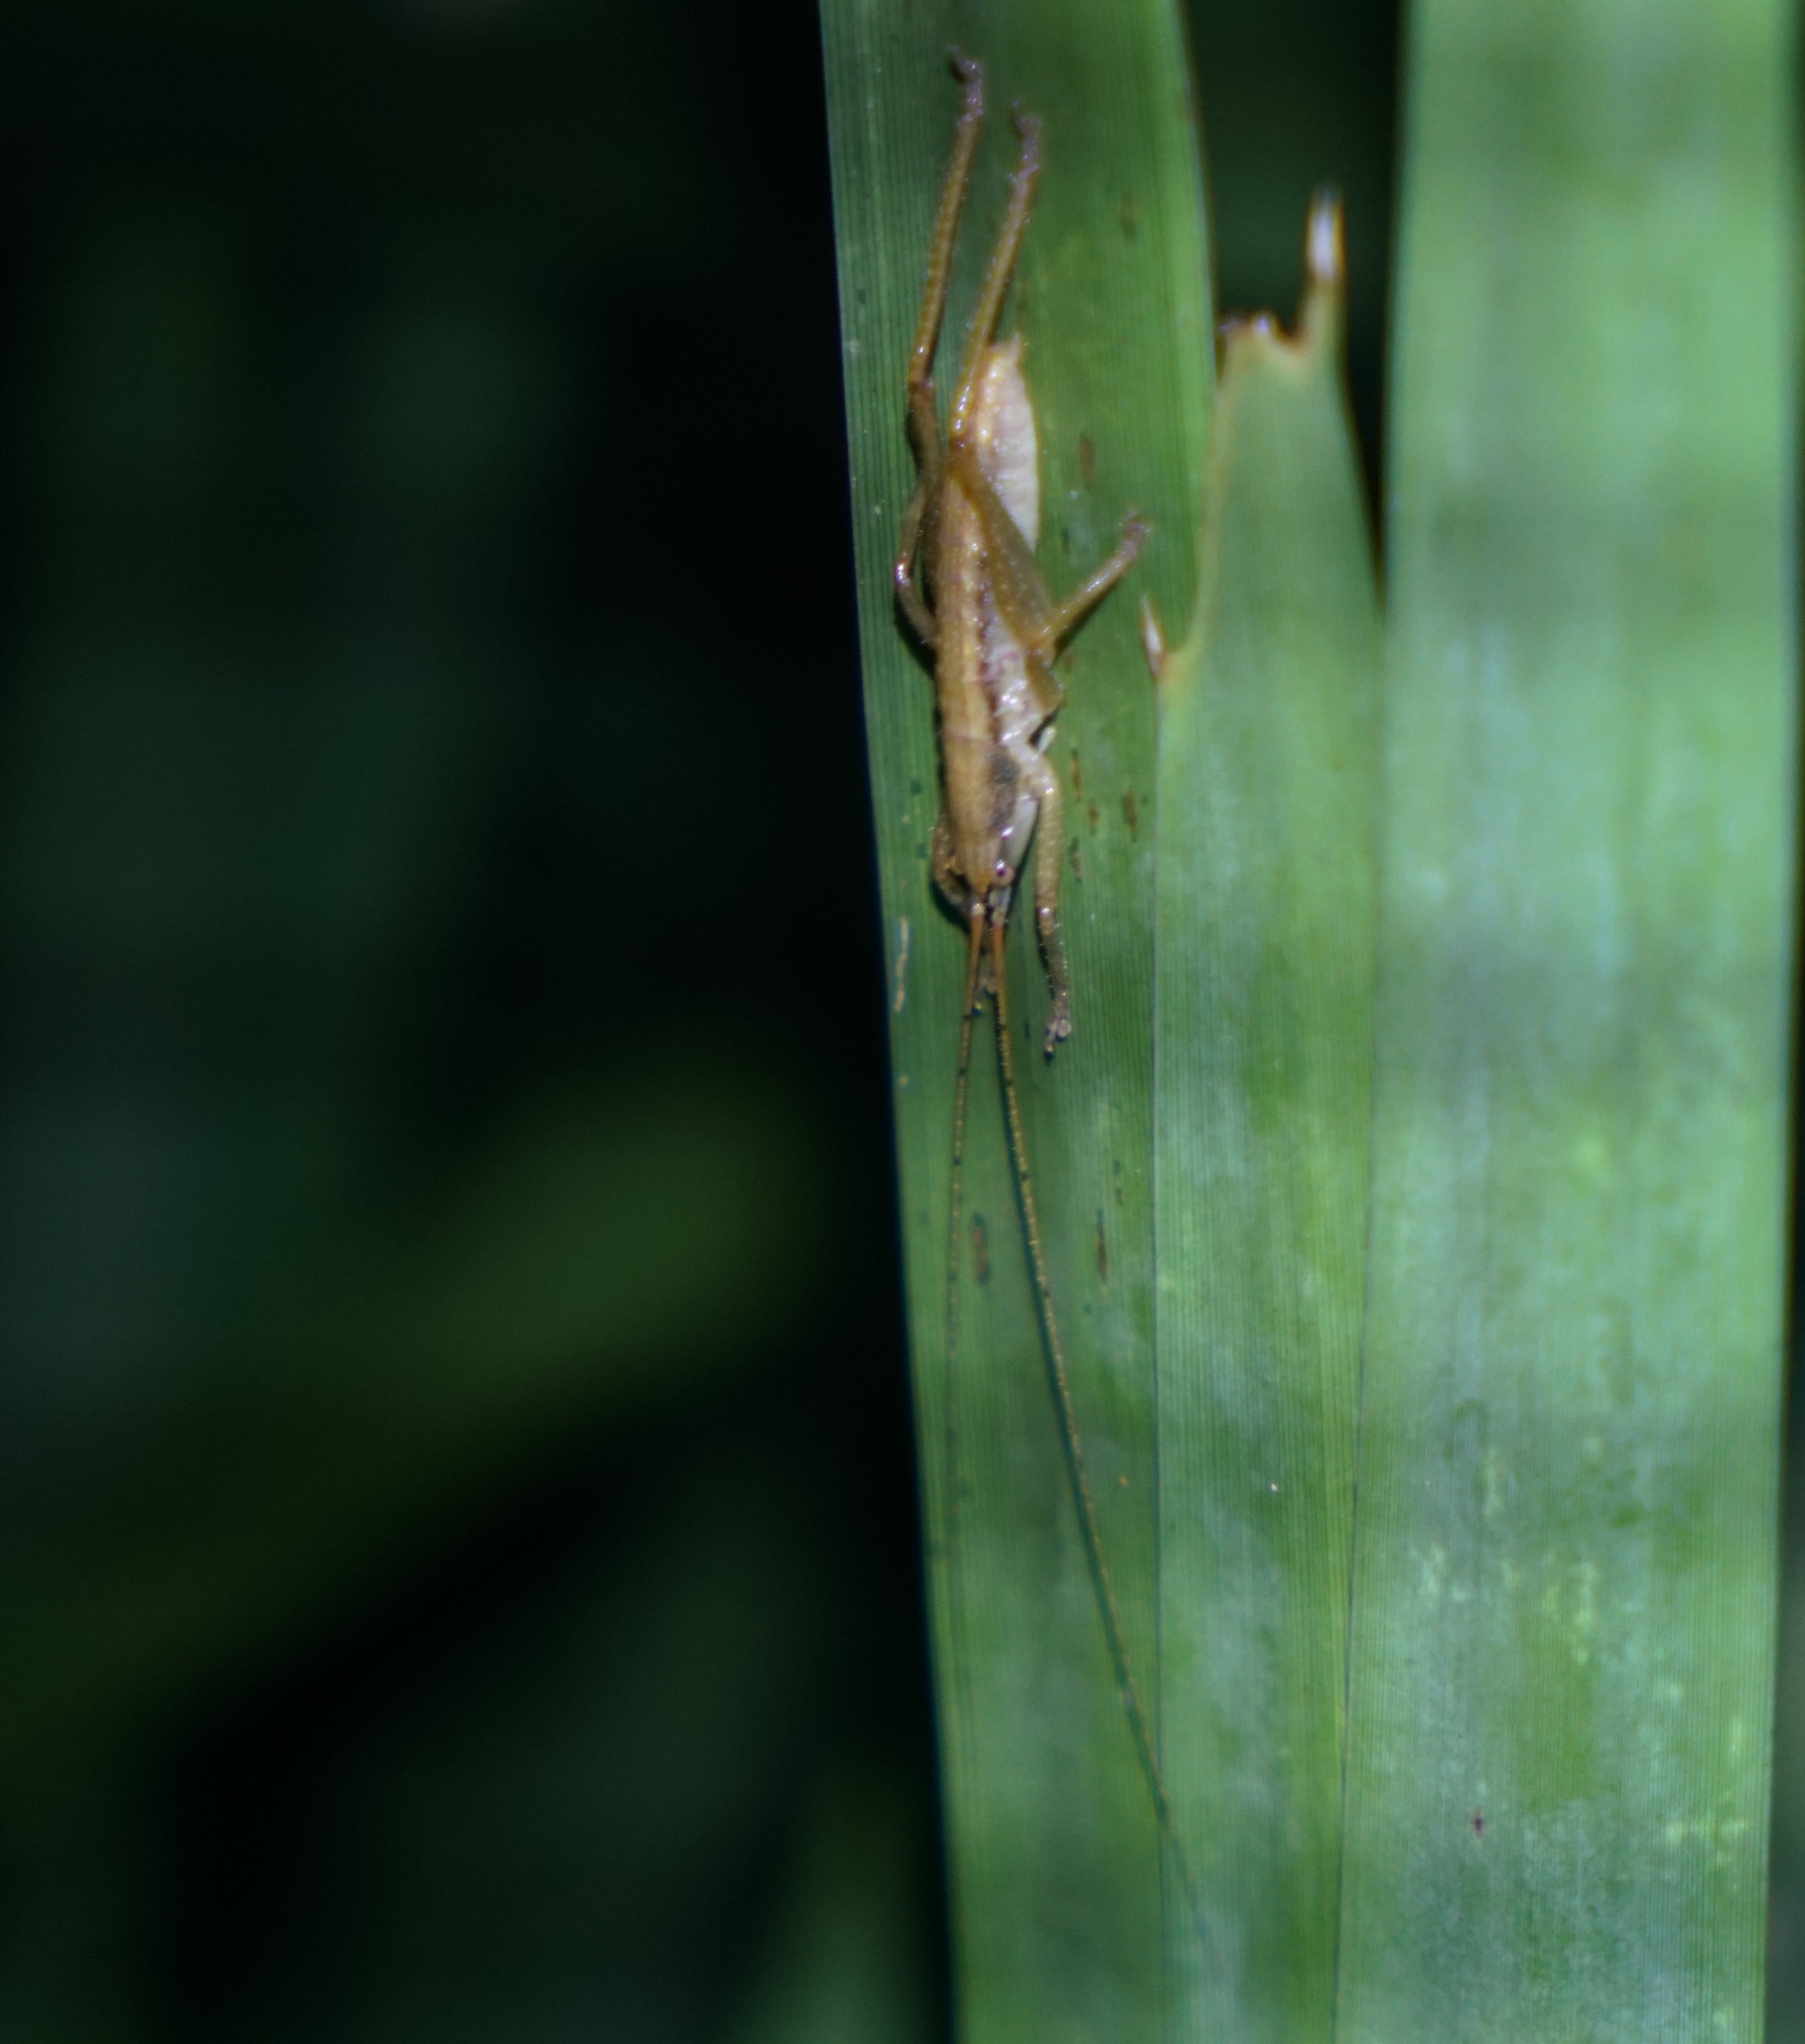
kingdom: Animalia
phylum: Arthropoda
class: Insecta
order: Orthoptera
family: Tettigoniidae
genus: Coptaspis
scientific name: Coptaspis brevipennis
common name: Sidney woodland katydid
